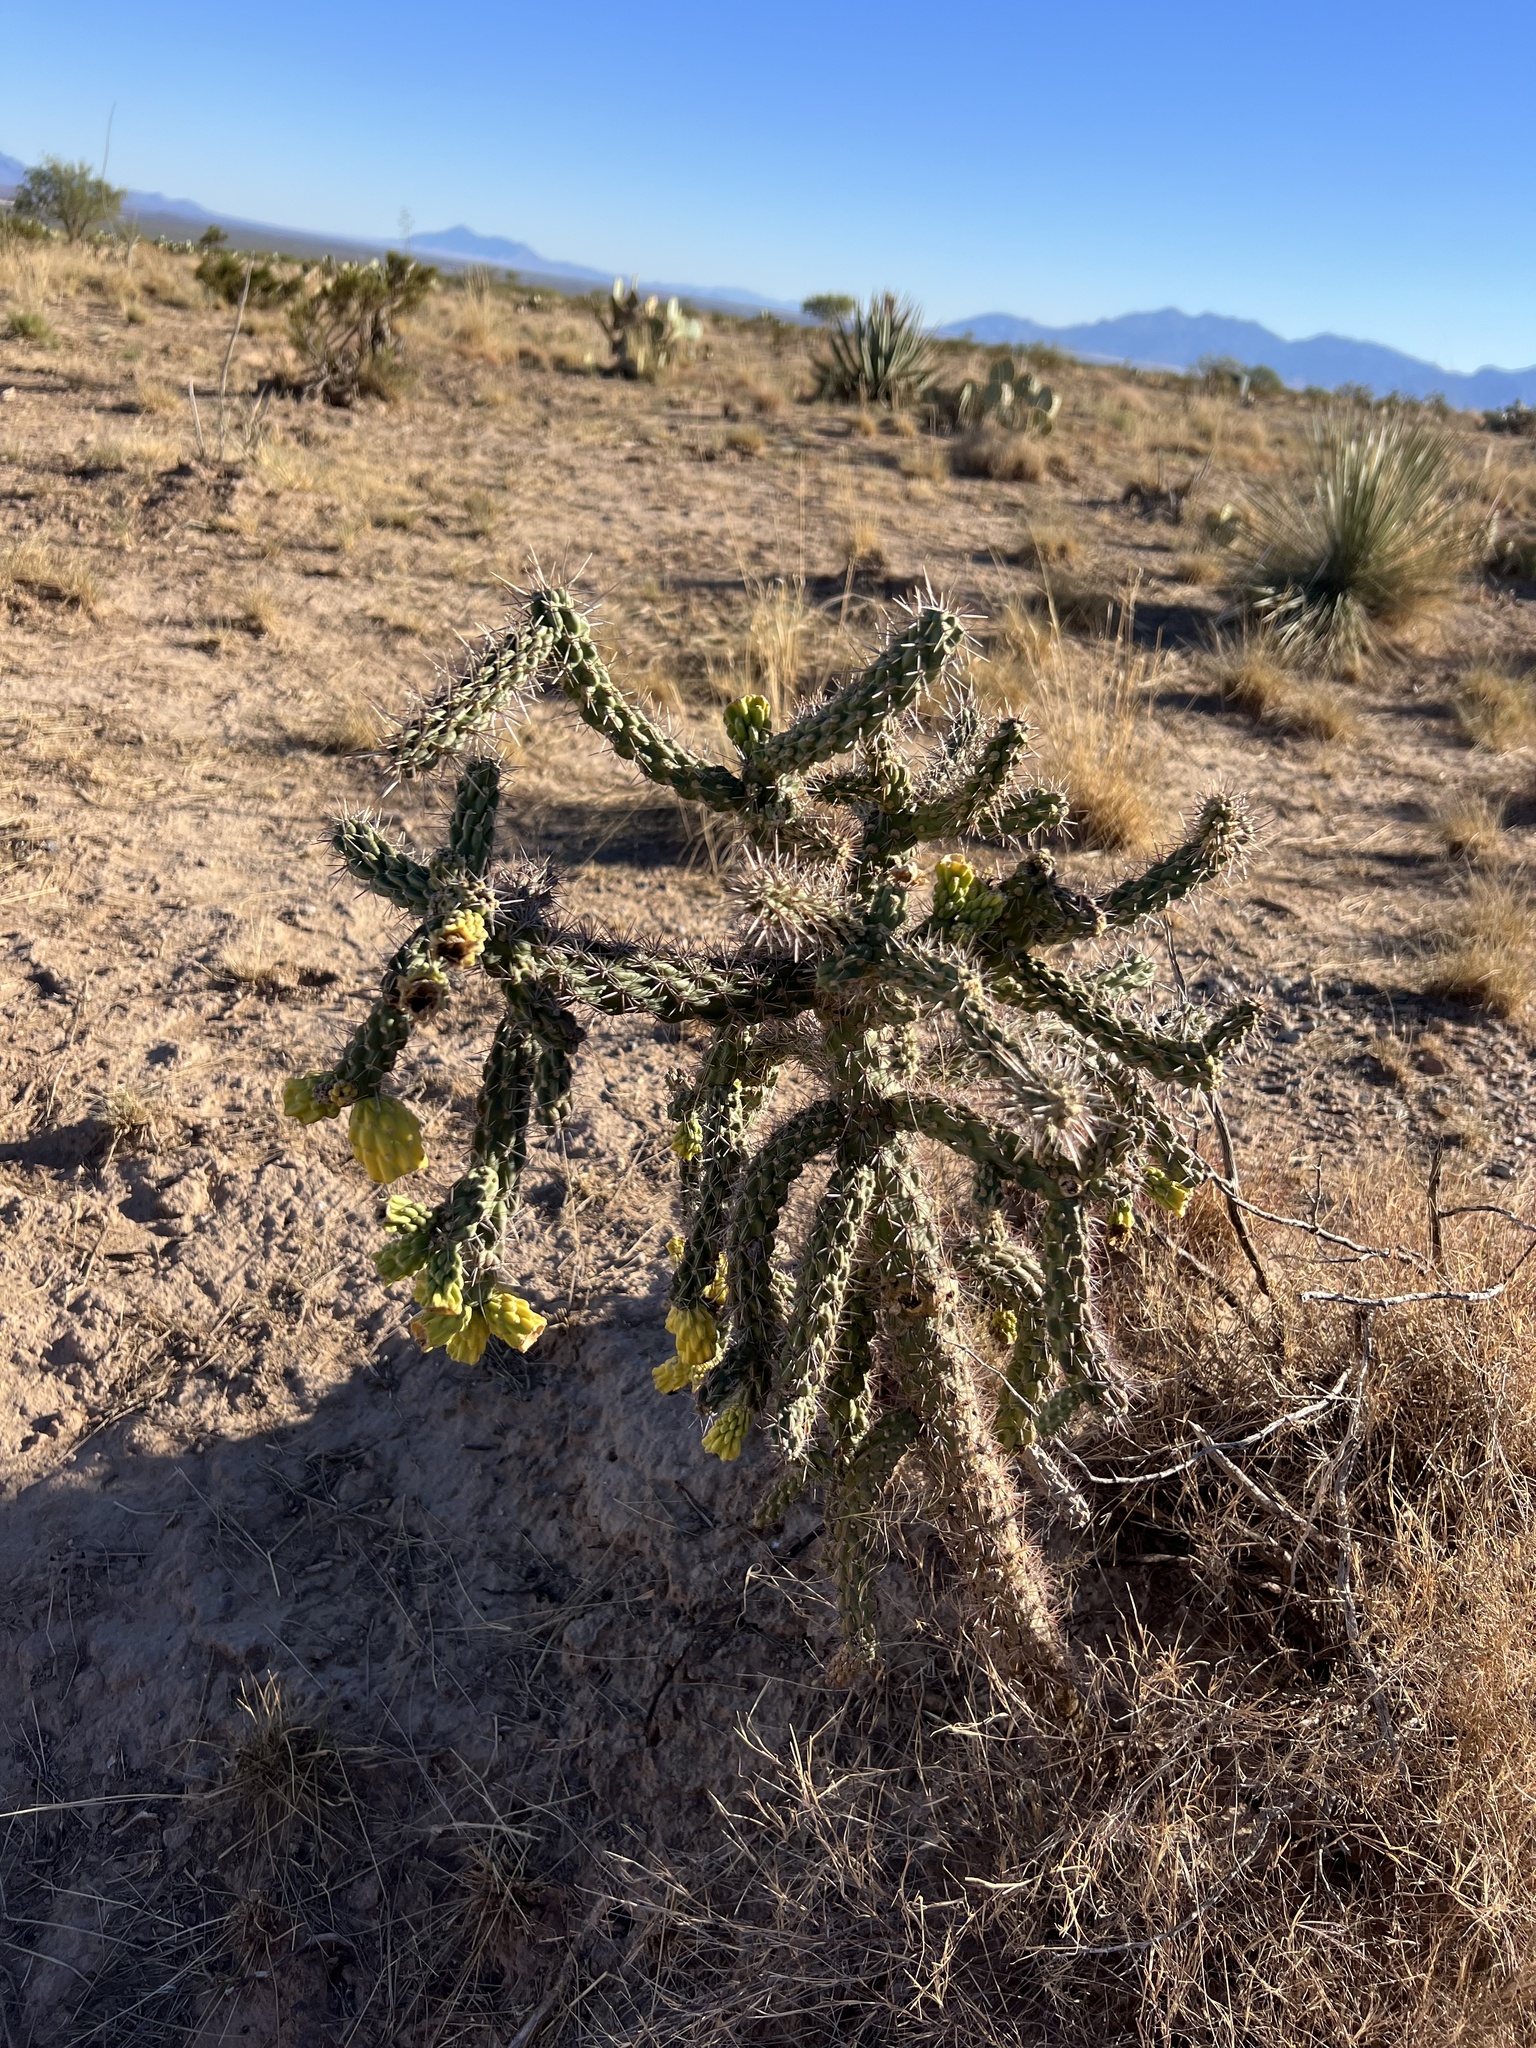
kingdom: Plantae
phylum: Tracheophyta
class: Magnoliopsida
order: Caryophyllales
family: Cactaceae
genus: Cylindropuntia
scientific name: Cylindropuntia imbricata
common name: Candelabrum cactus
